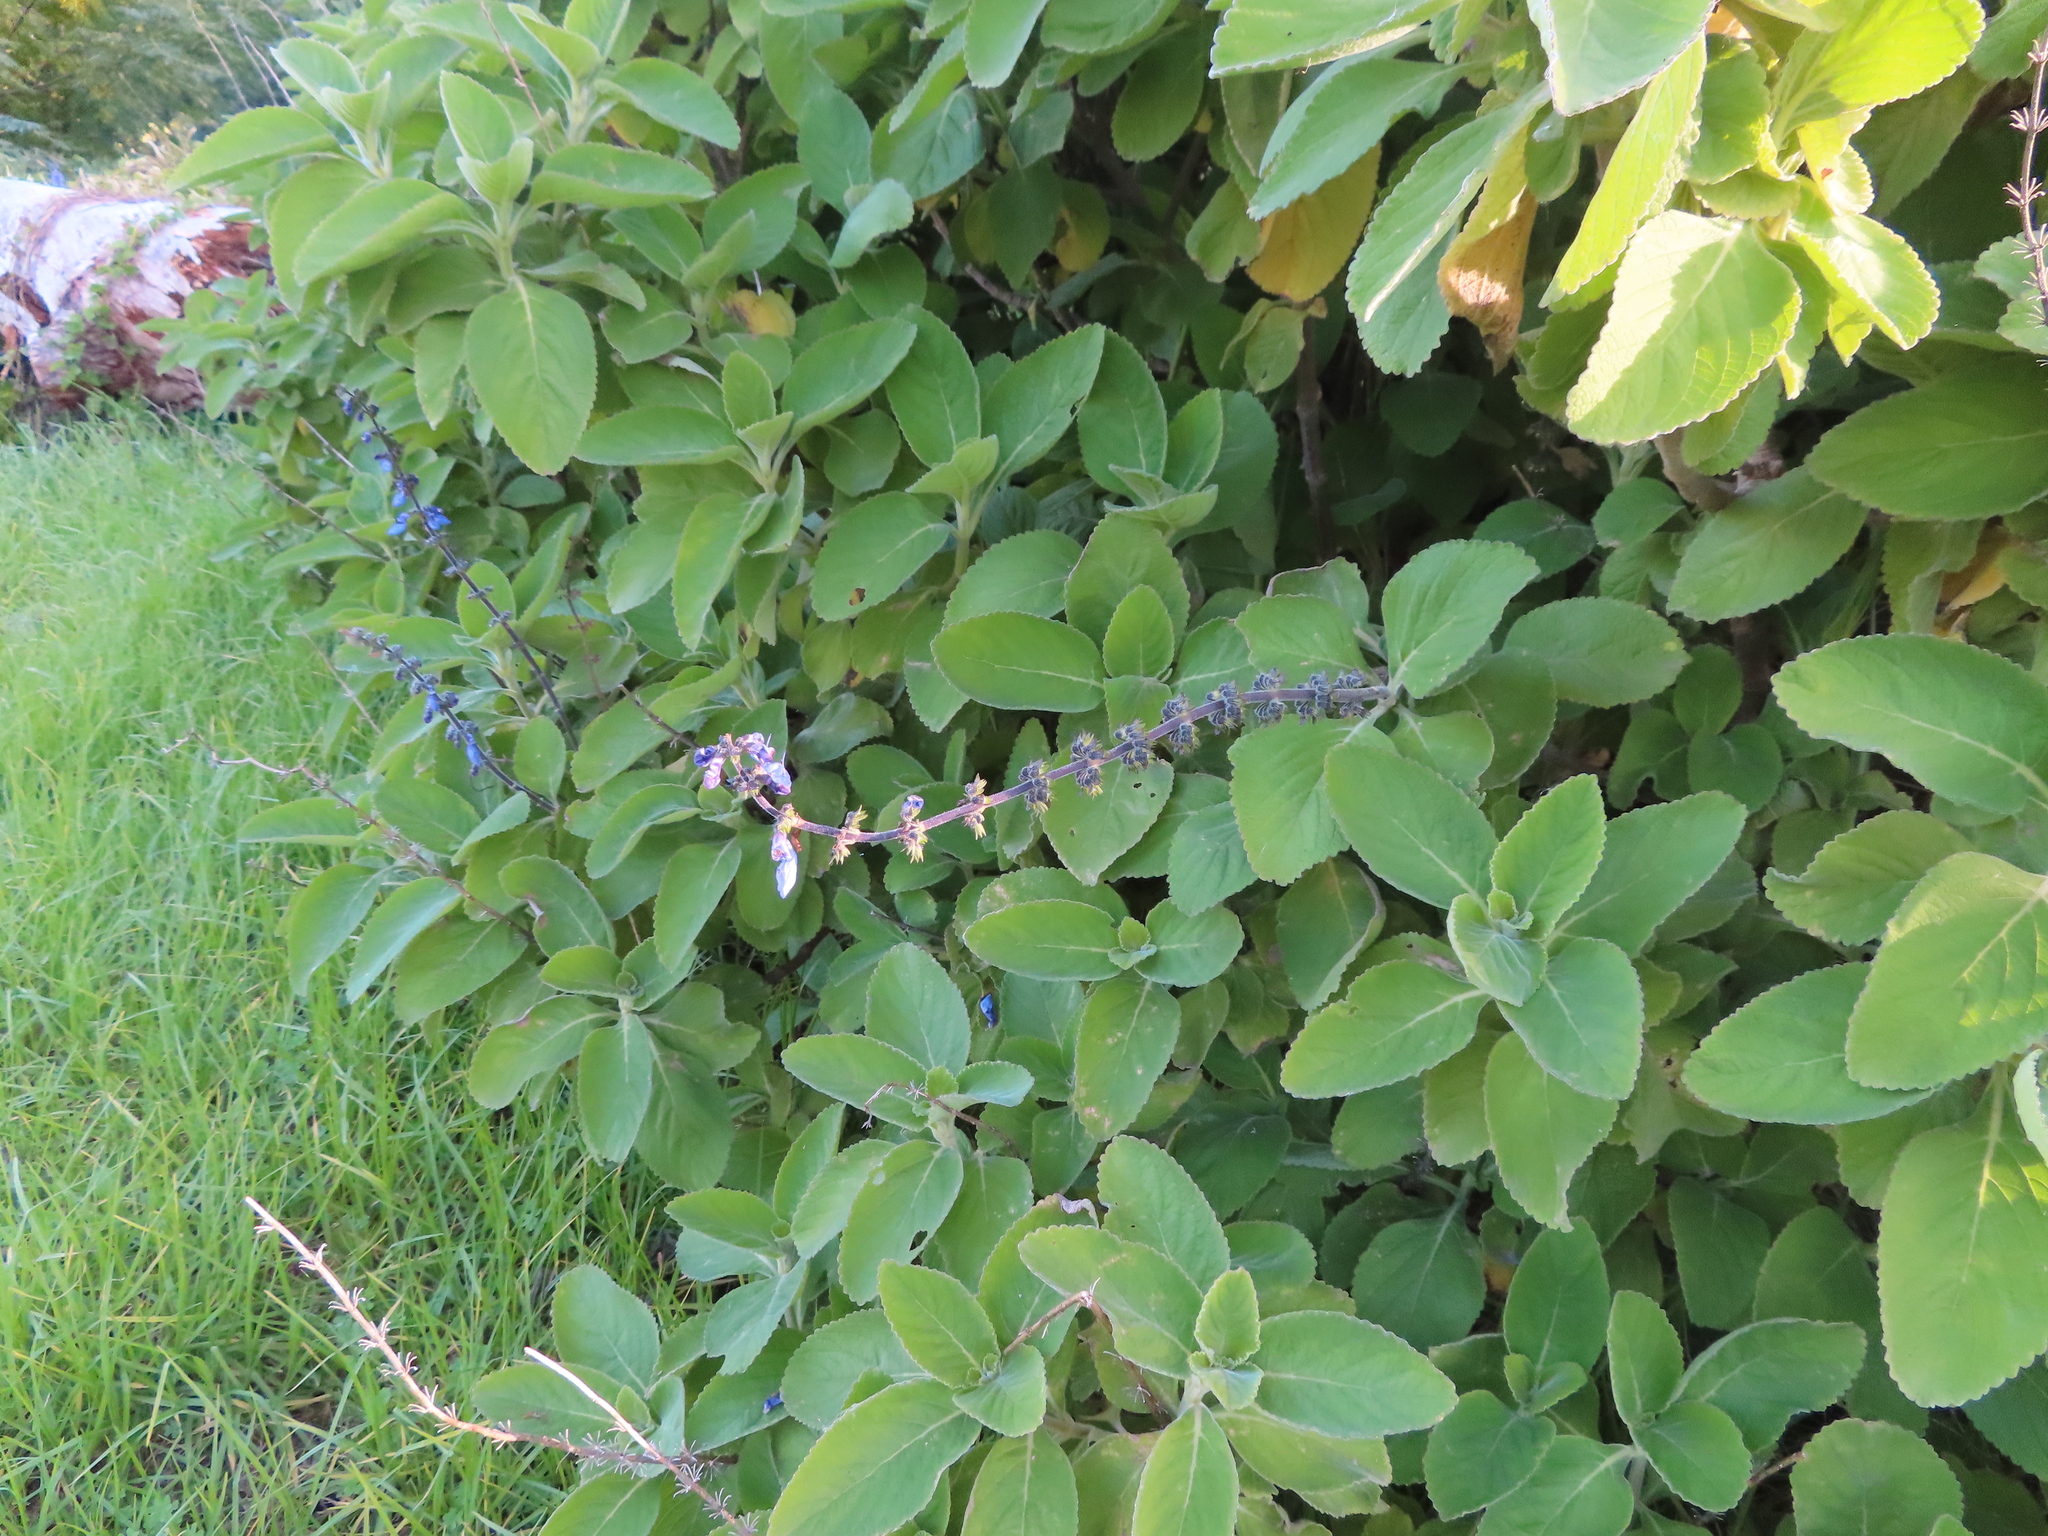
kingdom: Plantae
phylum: Tracheophyta
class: Magnoliopsida
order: Lamiales
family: Lamiaceae
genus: Coleus
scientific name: Coleus barbatus
